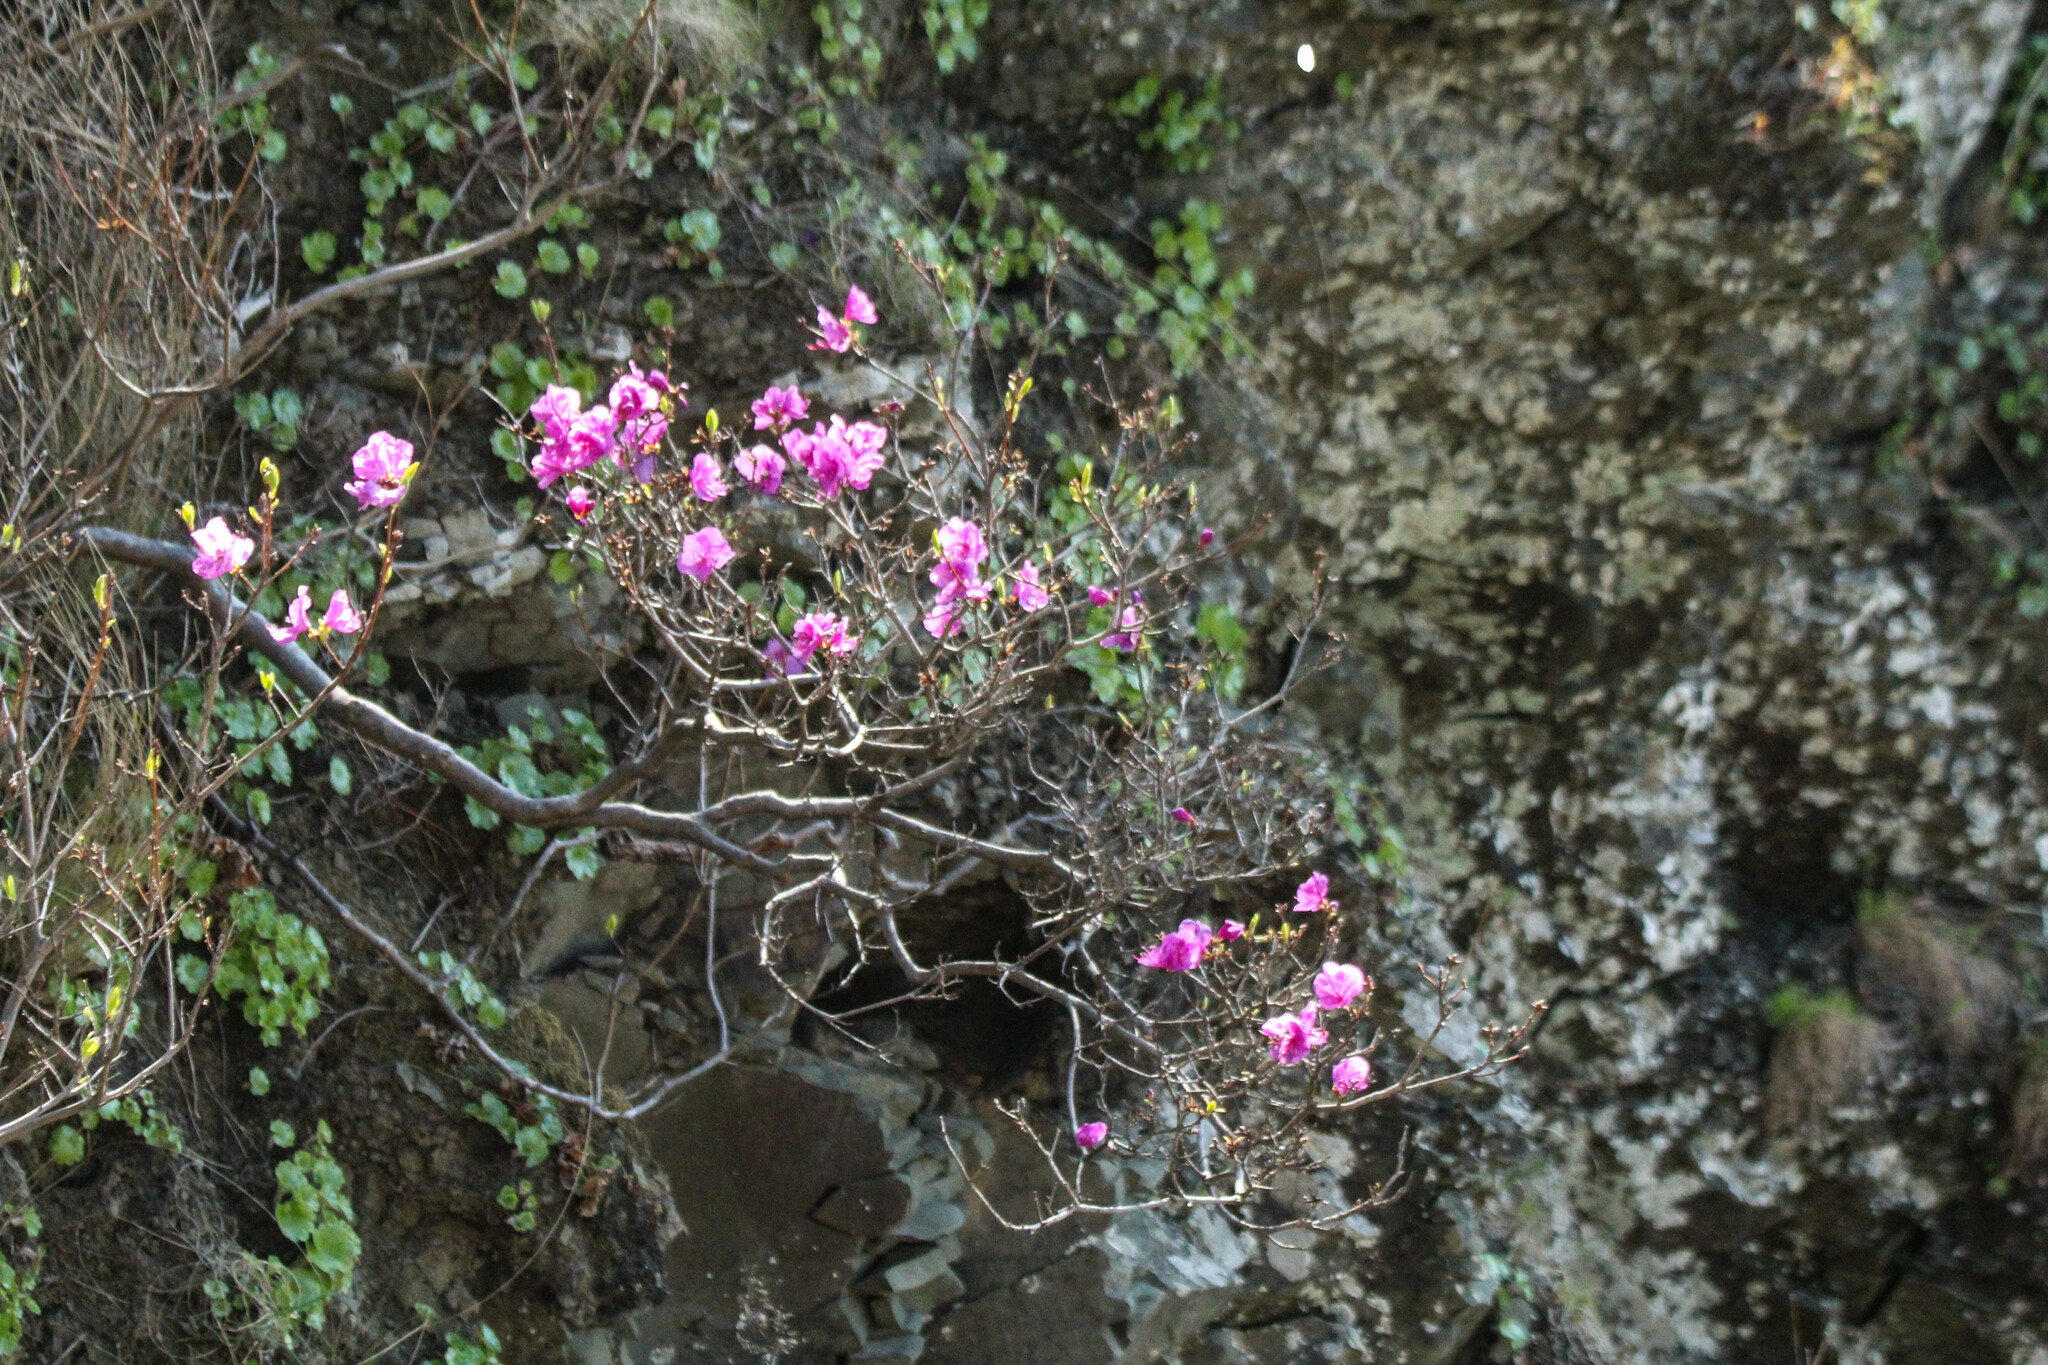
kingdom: Plantae
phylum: Tracheophyta
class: Magnoliopsida
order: Ericales
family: Ericaceae
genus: Rhododendron
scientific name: Rhododendron mucronulatum
